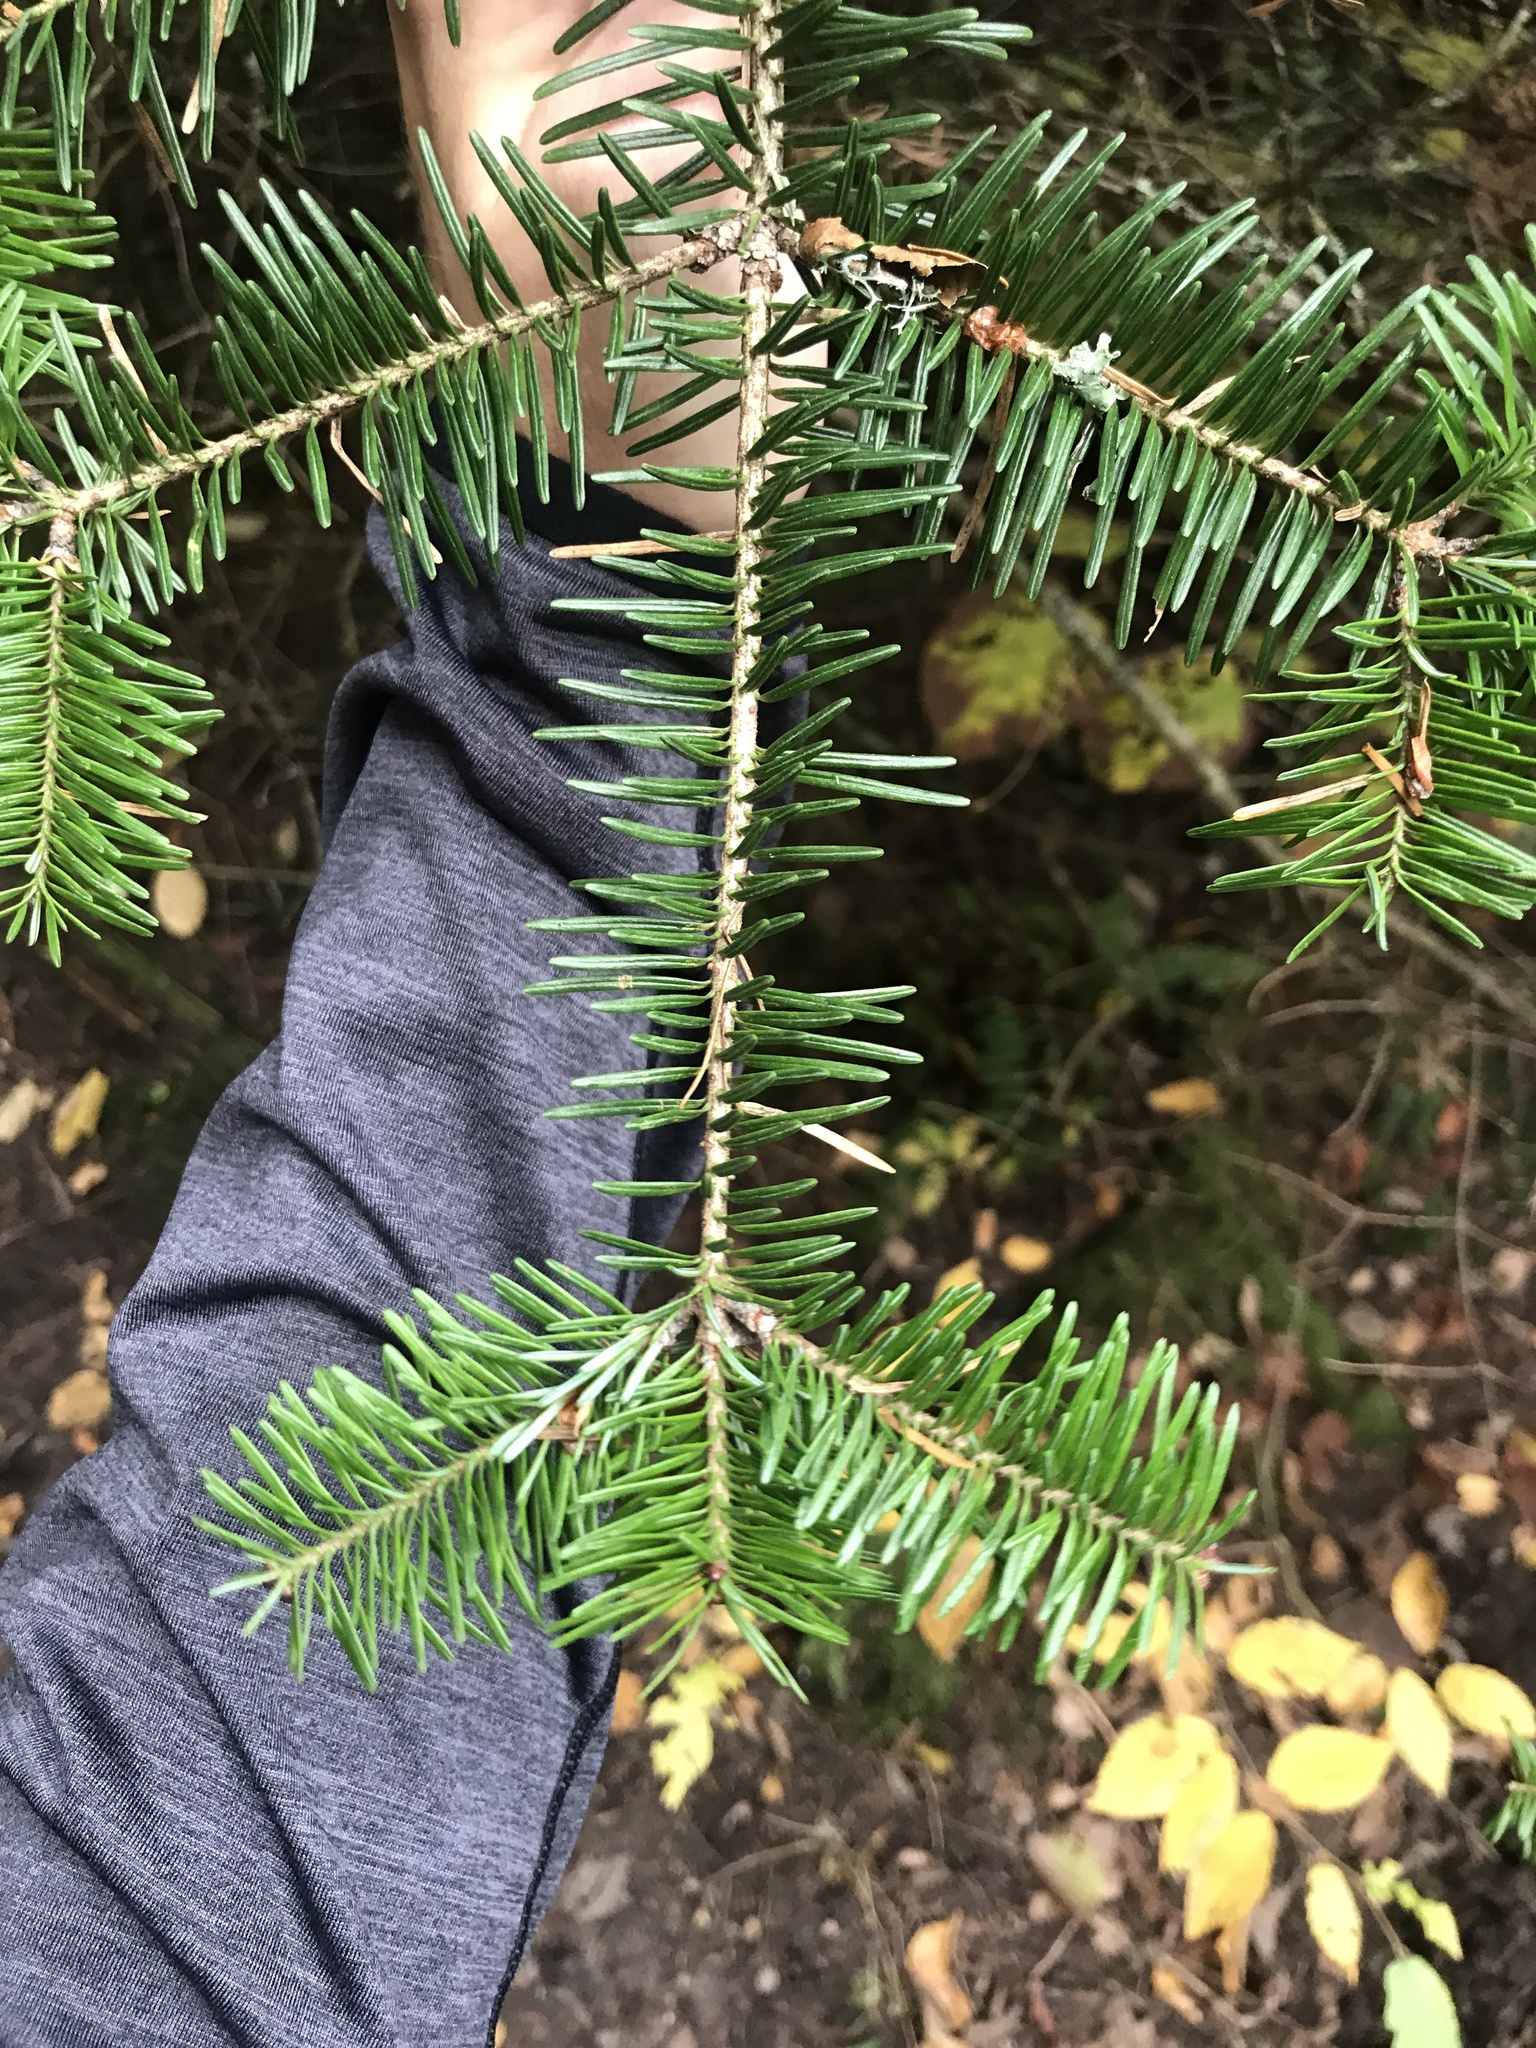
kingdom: Plantae
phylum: Tracheophyta
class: Pinopsida
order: Pinales
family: Pinaceae
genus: Abies
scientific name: Abies balsamea
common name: Balsam fir
